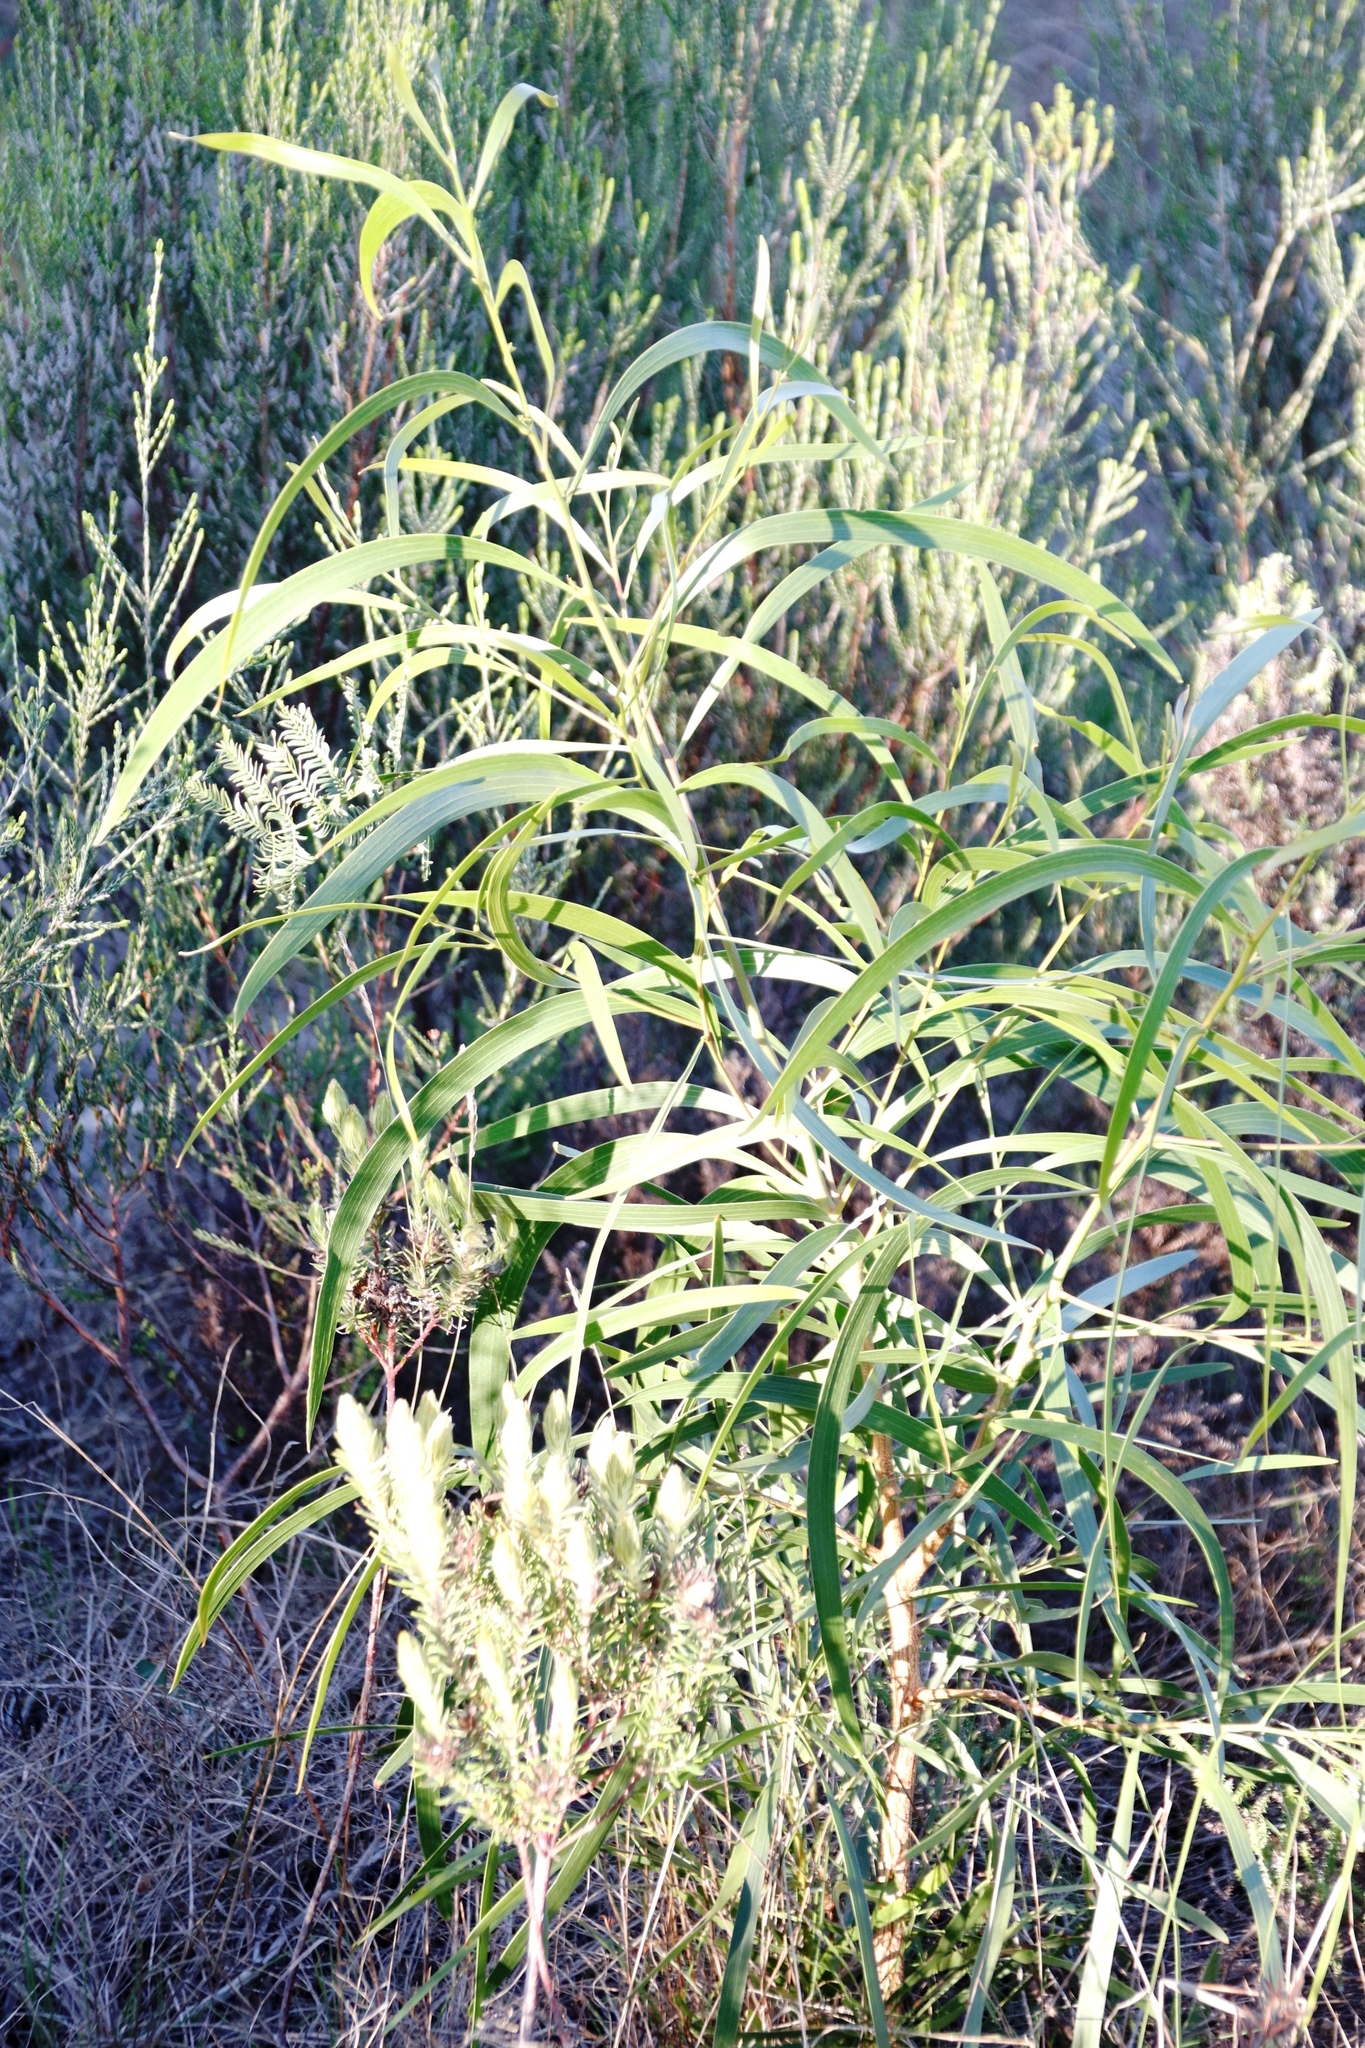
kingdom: Plantae
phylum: Tracheophyta
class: Magnoliopsida
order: Fabales
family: Fabaceae
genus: Acacia
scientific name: Acacia implexa
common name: Black wattle
